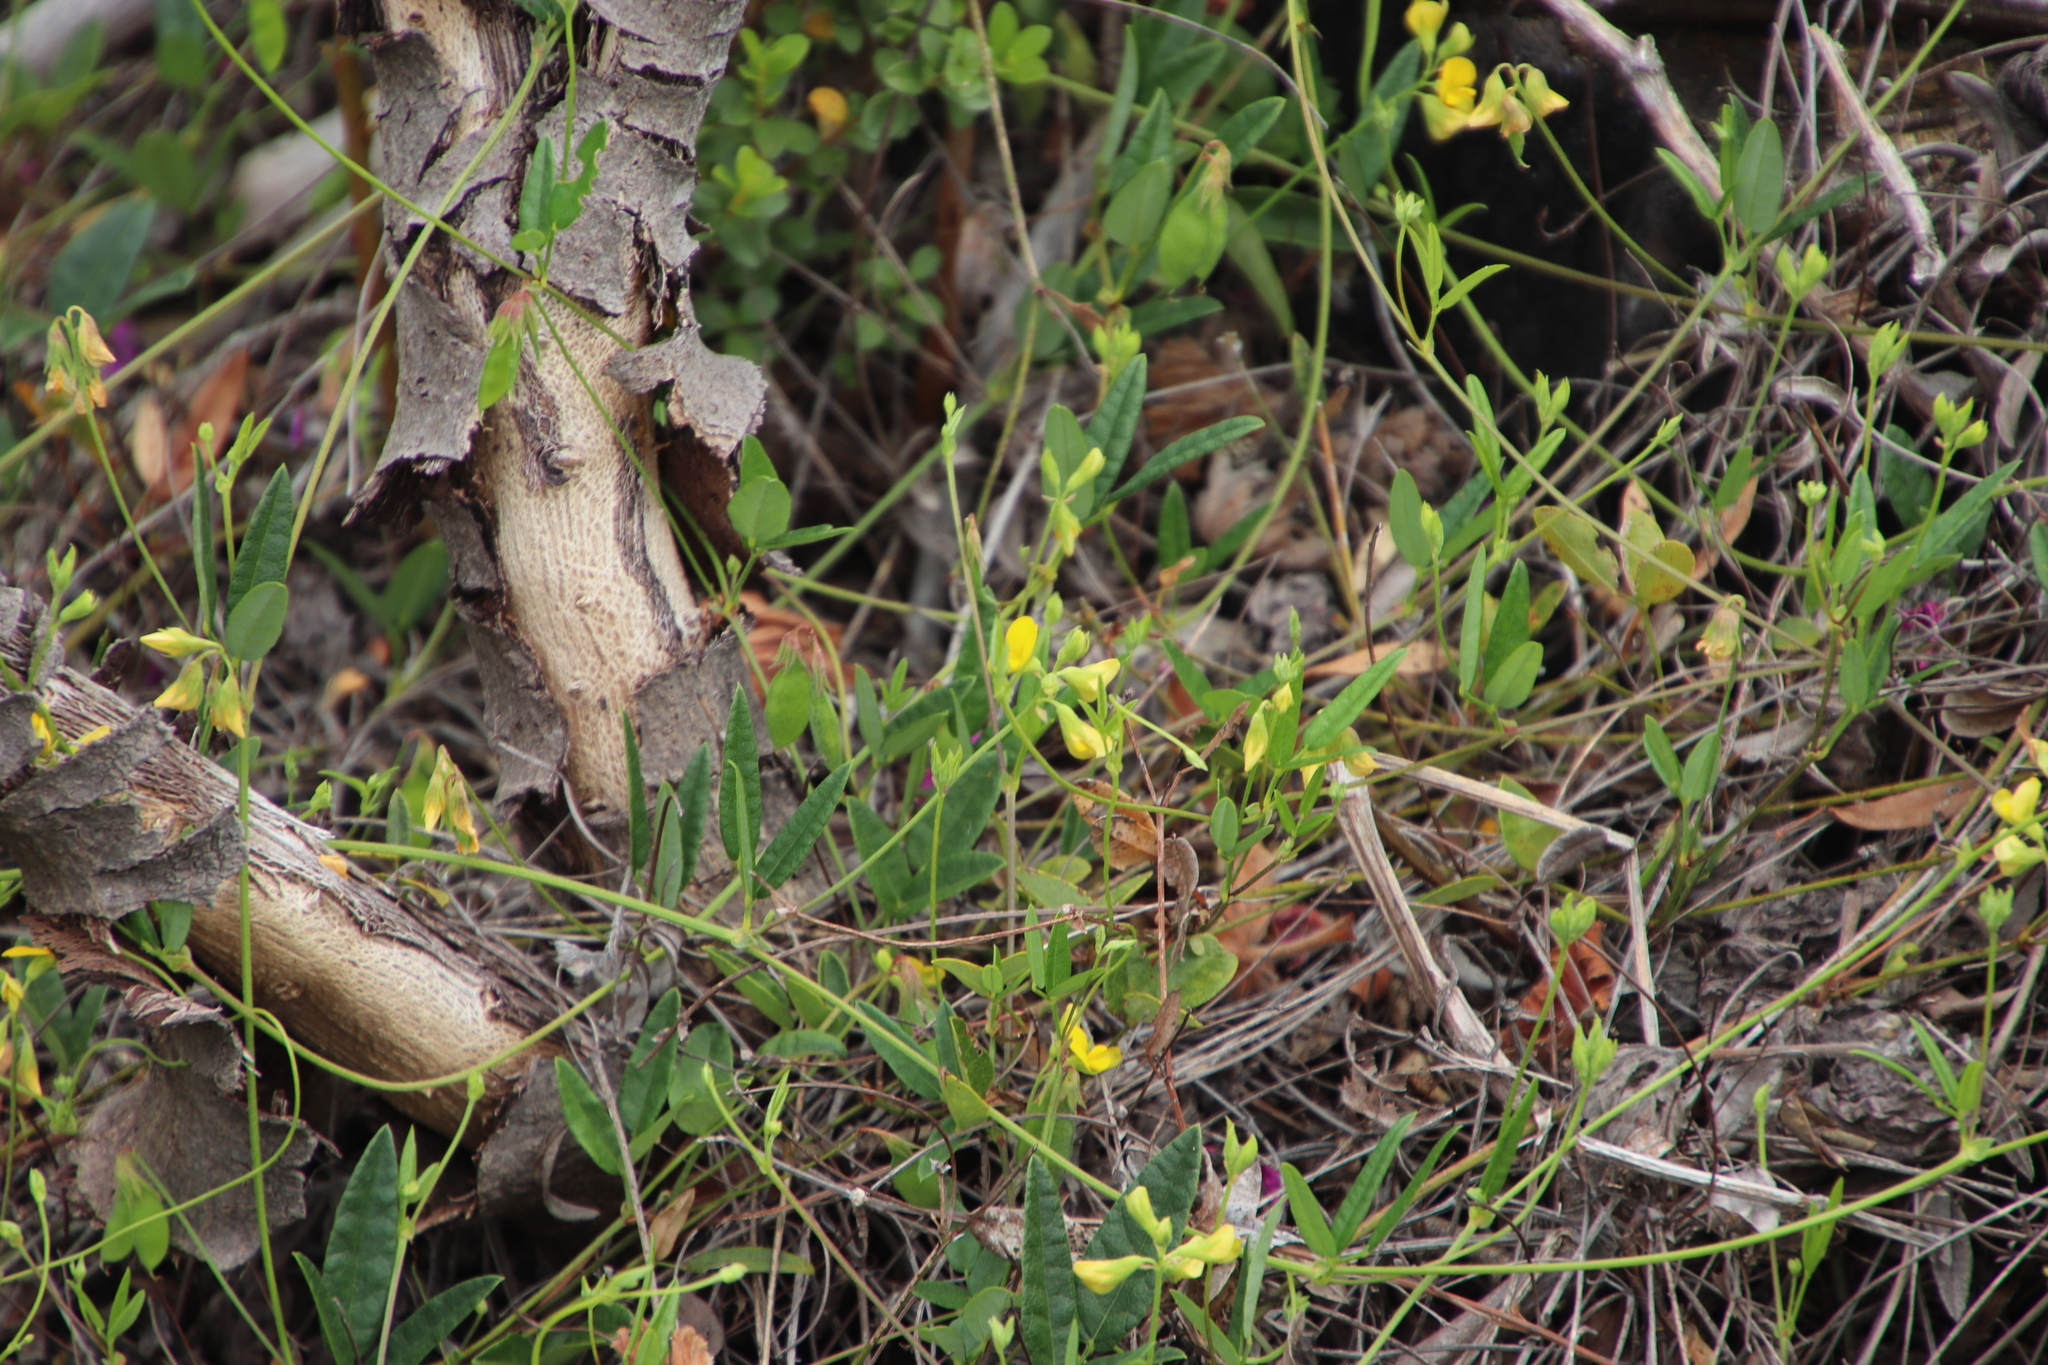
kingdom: Plantae
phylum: Tracheophyta
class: Magnoliopsida
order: Fabales
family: Fabaceae
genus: Rhynchosia
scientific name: Rhynchosia capensis
